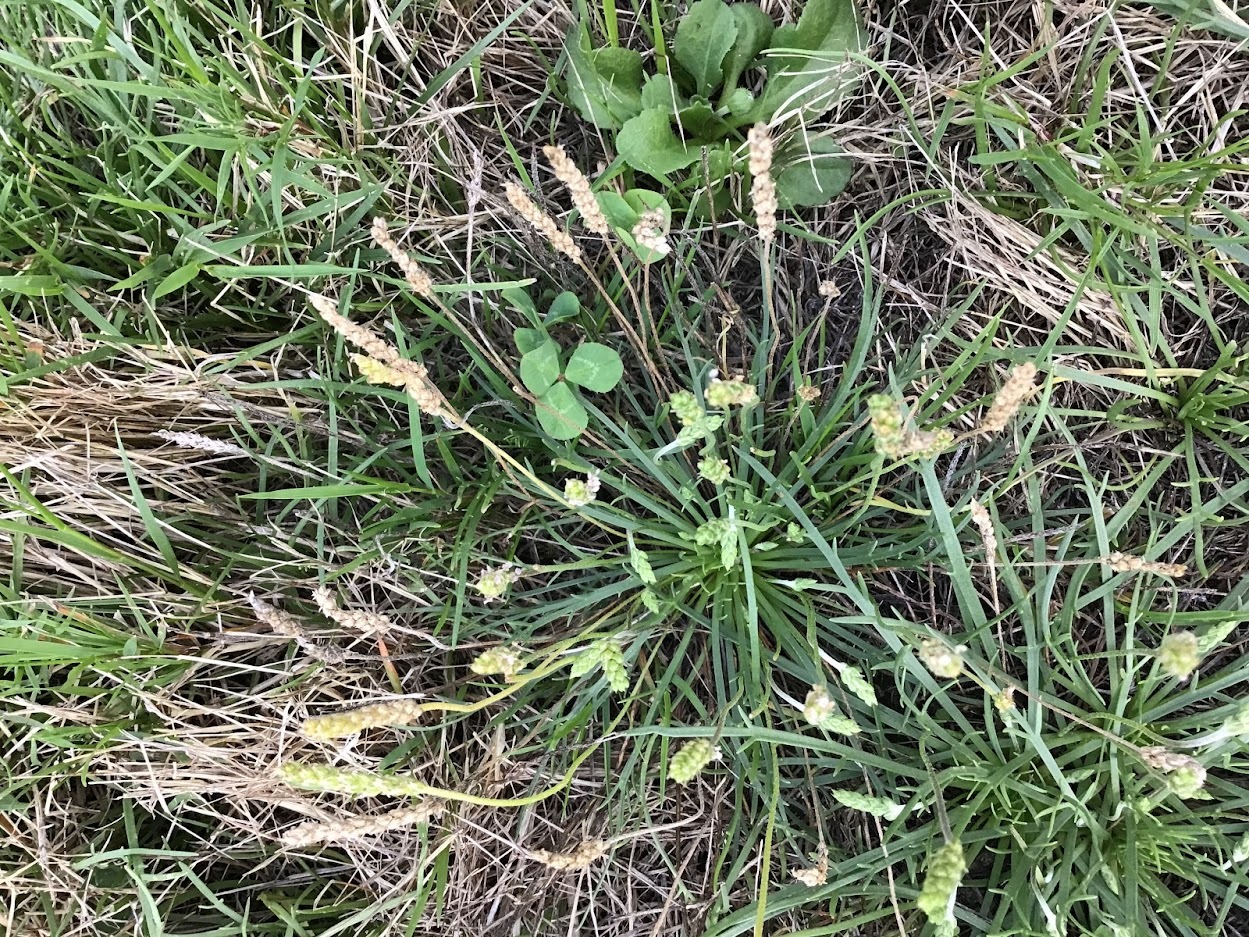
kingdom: Plantae
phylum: Tracheophyta
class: Magnoliopsida
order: Lamiales
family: Plantaginaceae
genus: Plantago
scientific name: Plantago coronopus
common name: Buck's-horn plantain
